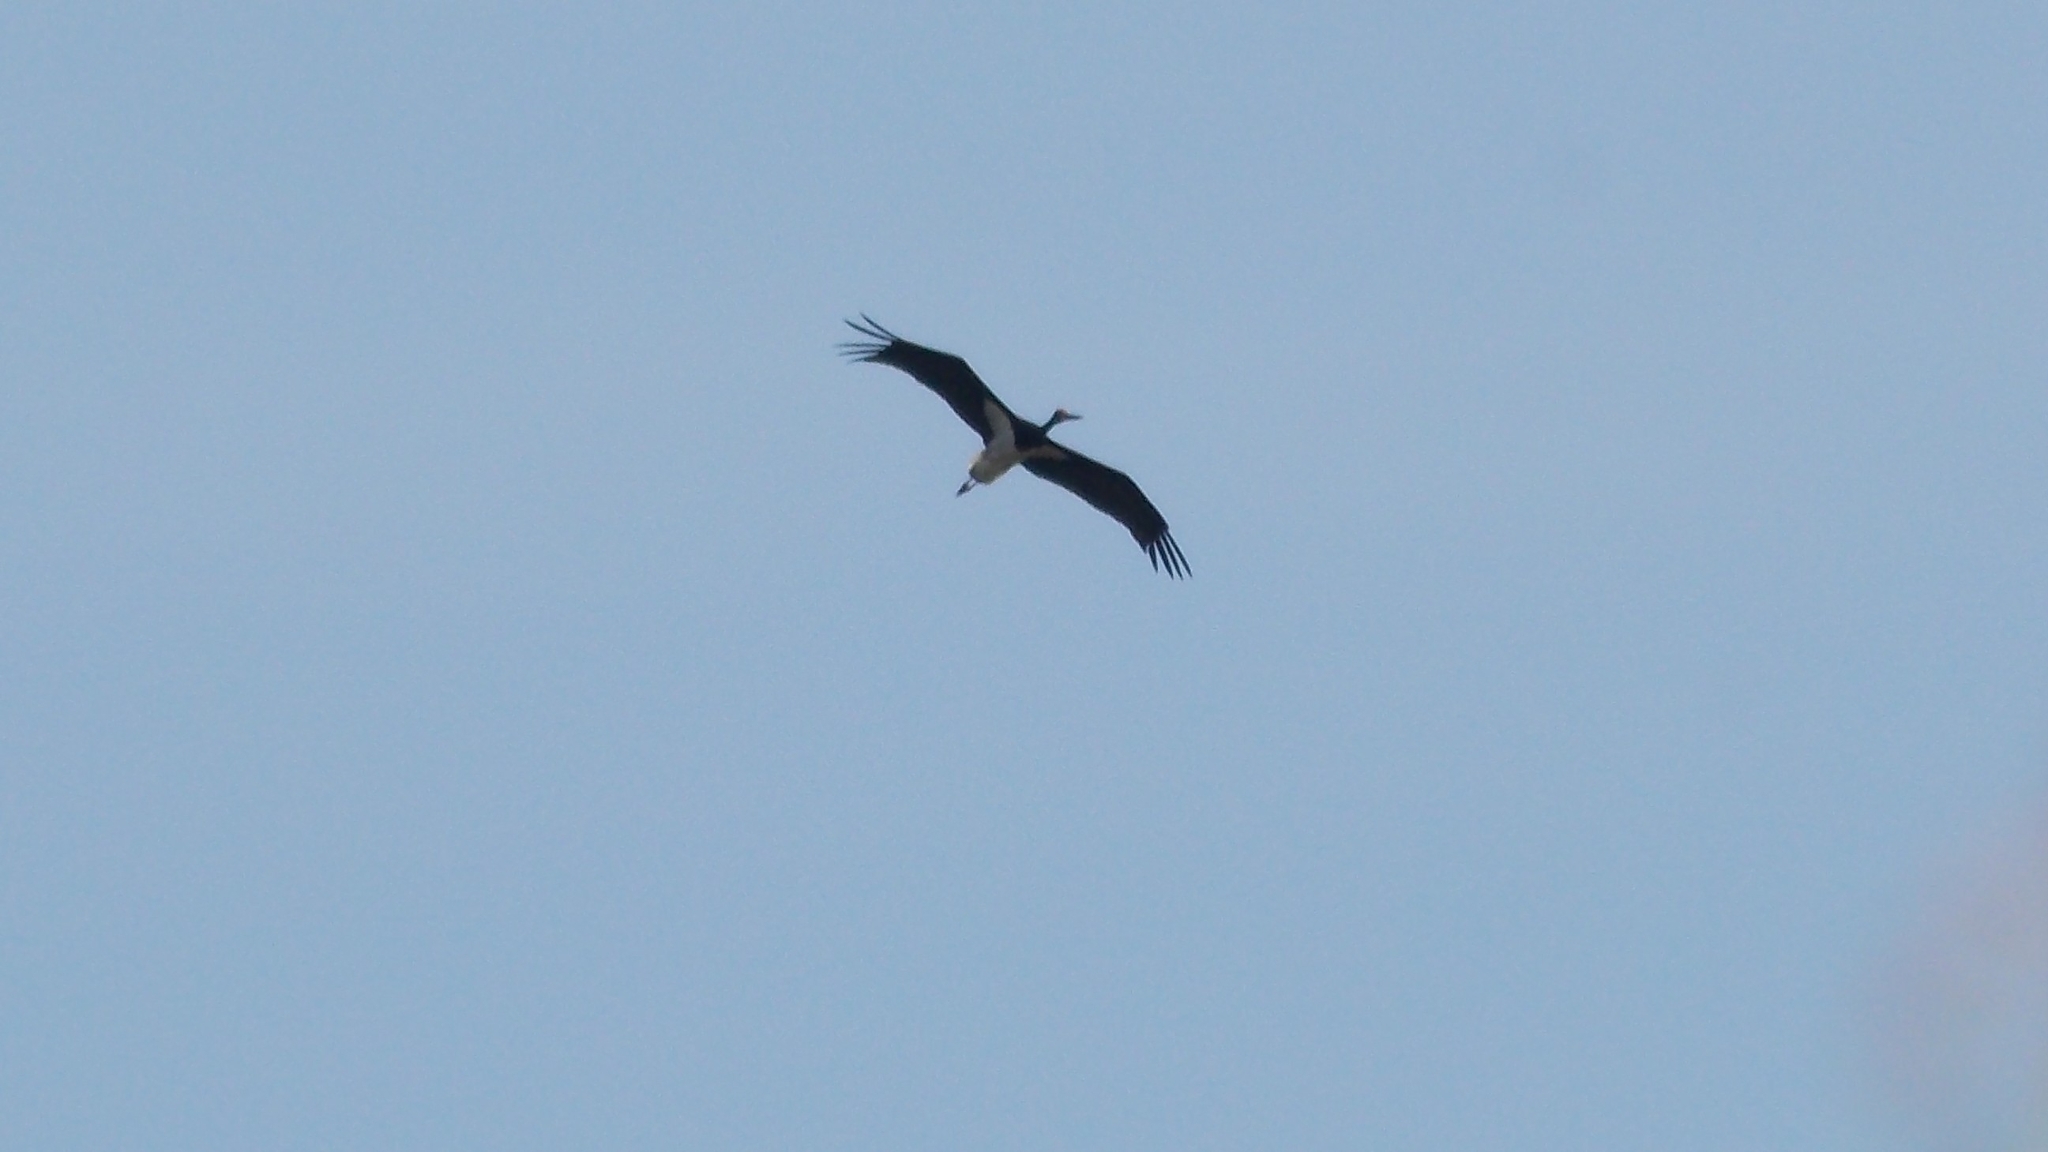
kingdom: Animalia
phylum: Chordata
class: Aves
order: Ciconiiformes
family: Ciconiidae
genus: Ciconia
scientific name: Ciconia nigra
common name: Black stork
